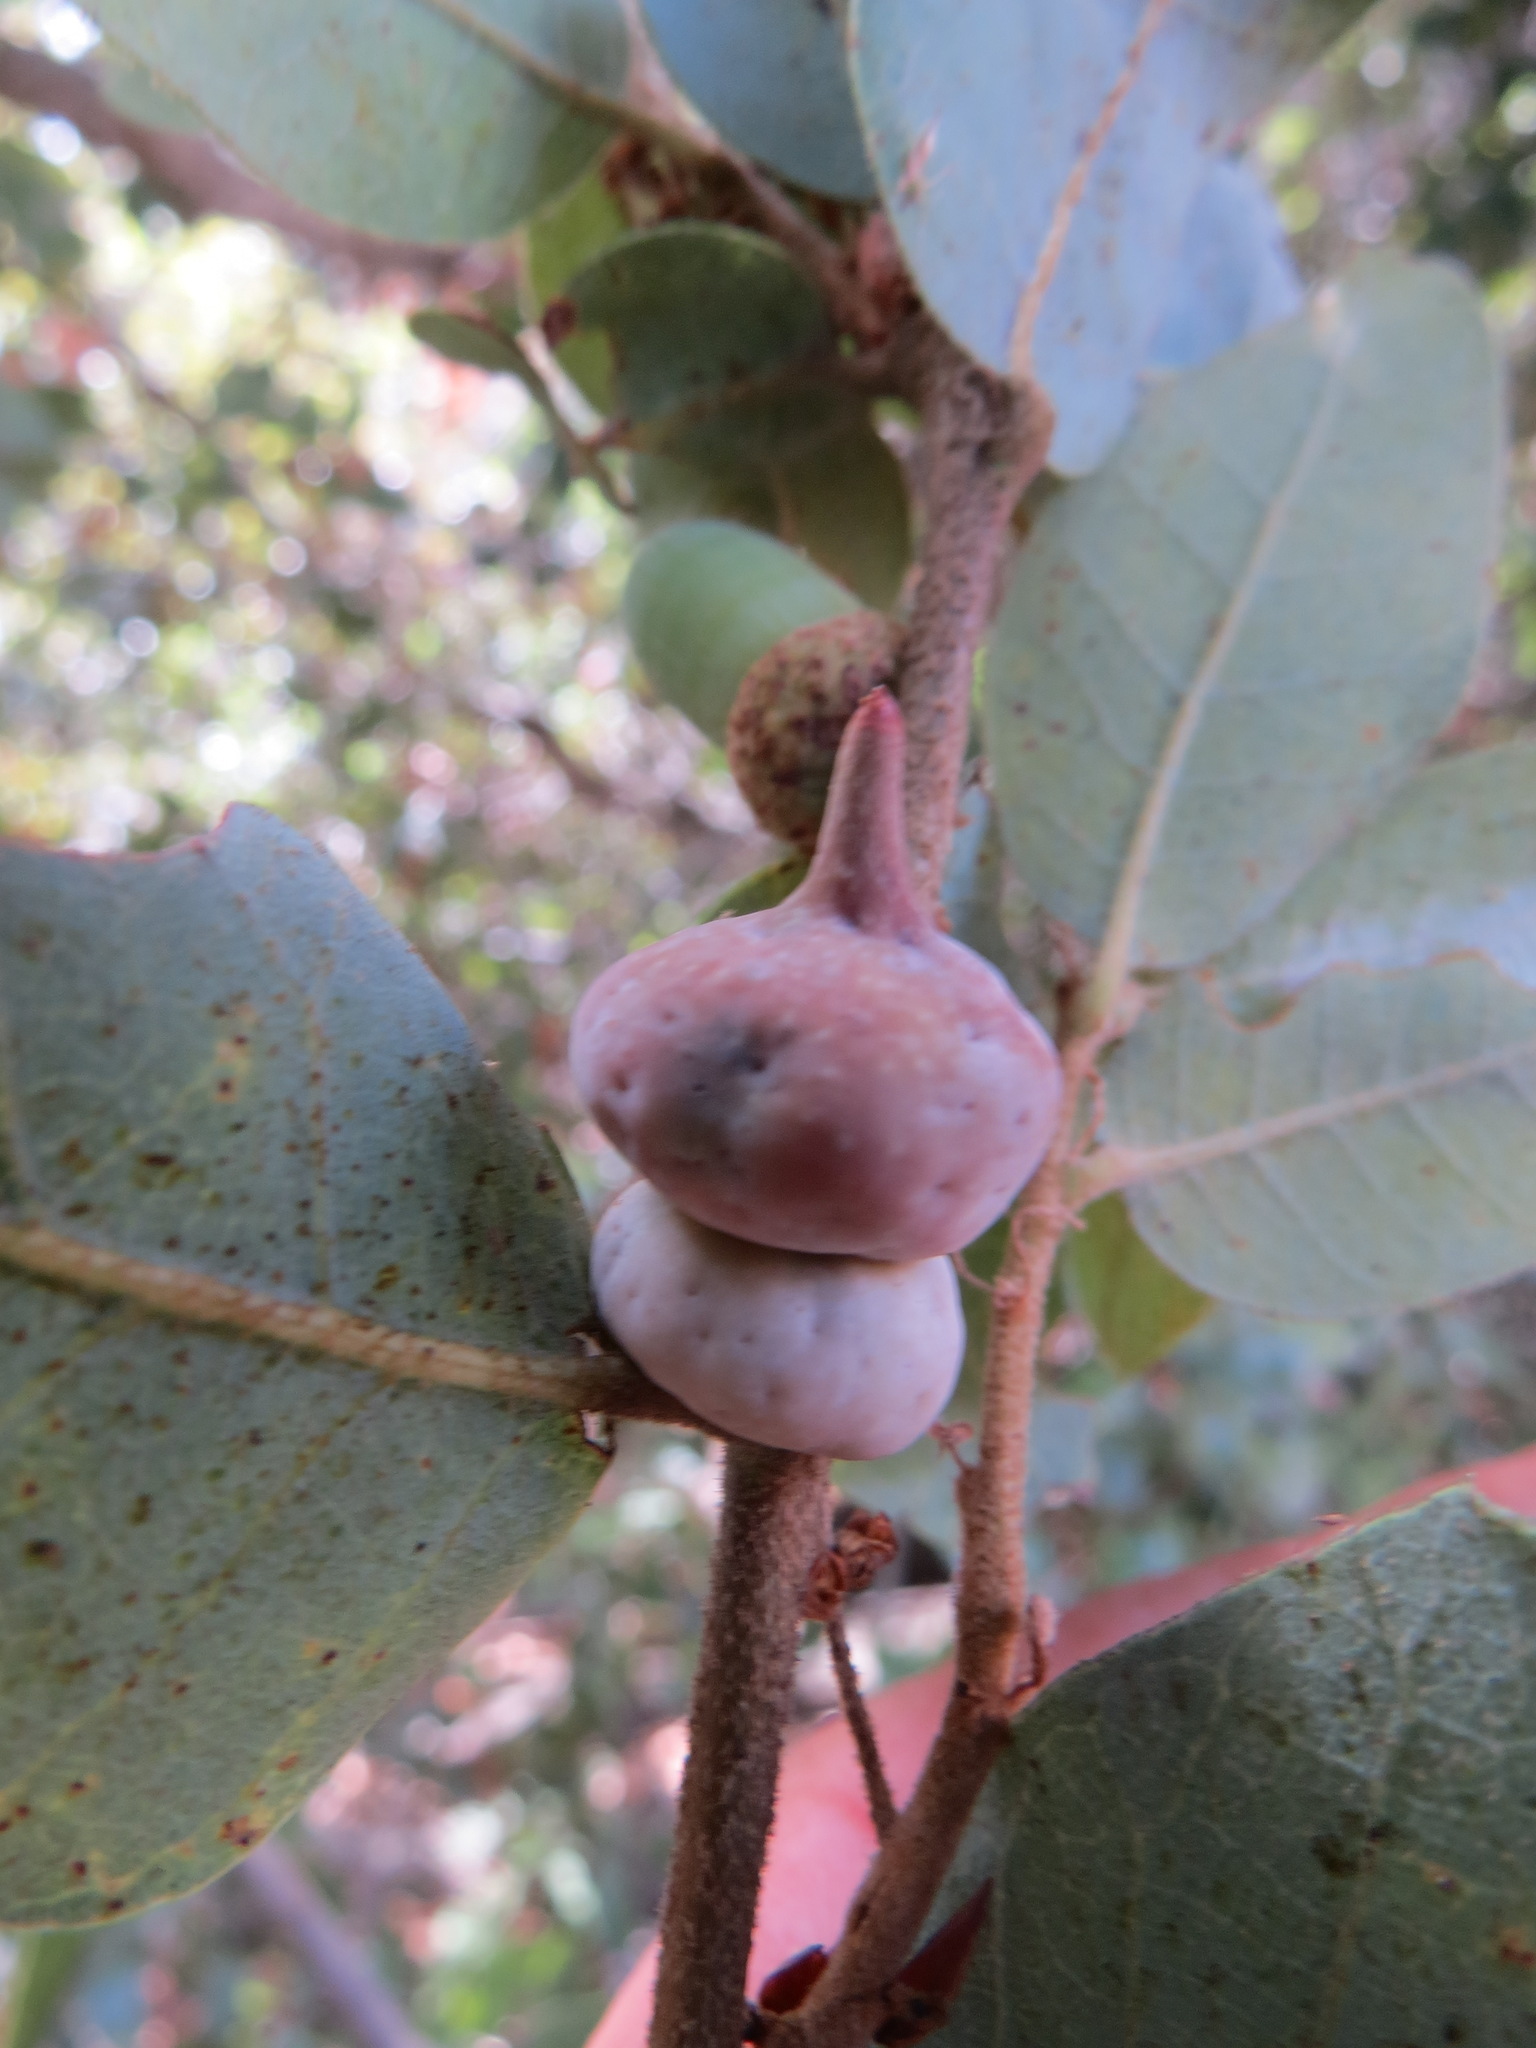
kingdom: Animalia
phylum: Arthropoda
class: Insecta
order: Hymenoptera
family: Cynipidae
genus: Heteroecus
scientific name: Heteroecus
